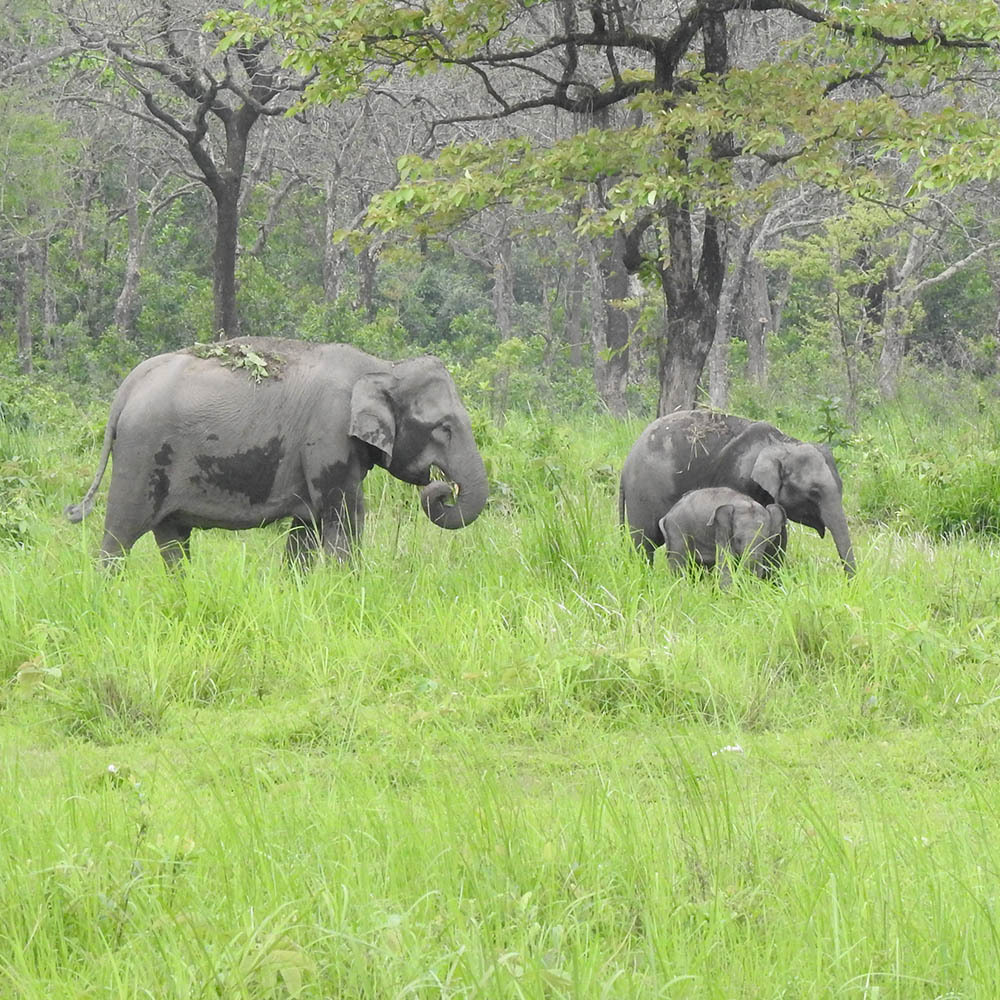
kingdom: Animalia
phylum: Chordata
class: Mammalia
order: Proboscidea
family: Elephantidae
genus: Elephas
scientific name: Elephas maximus
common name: Asian elephant
